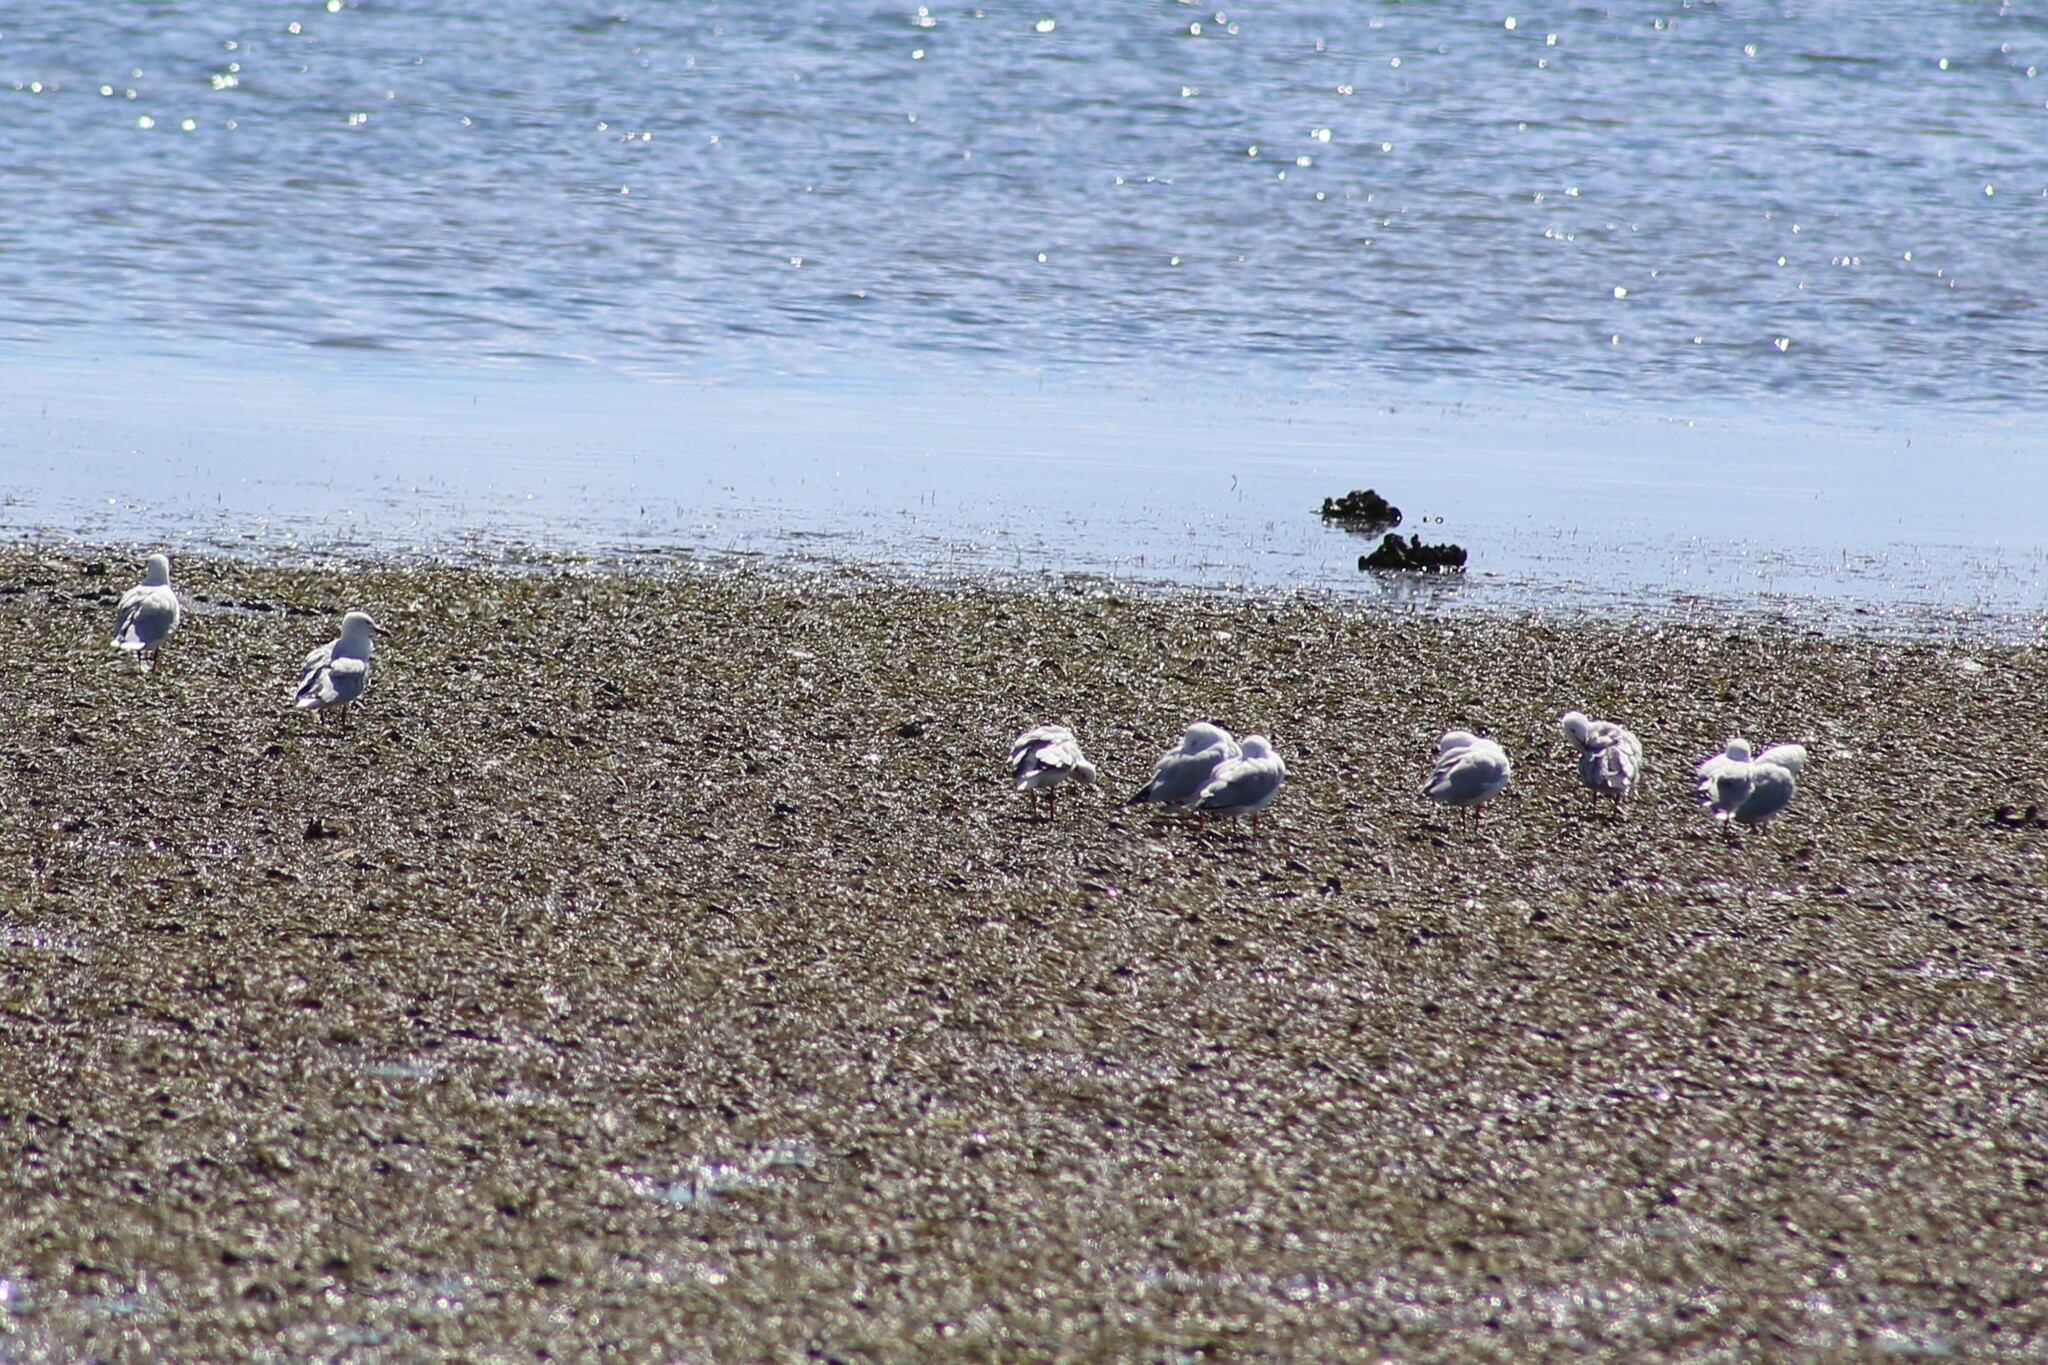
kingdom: Animalia
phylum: Chordata
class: Aves
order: Charadriiformes
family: Laridae
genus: Chroicocephalus
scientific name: Chroicocephalus novaehollandiae
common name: Silver gull
